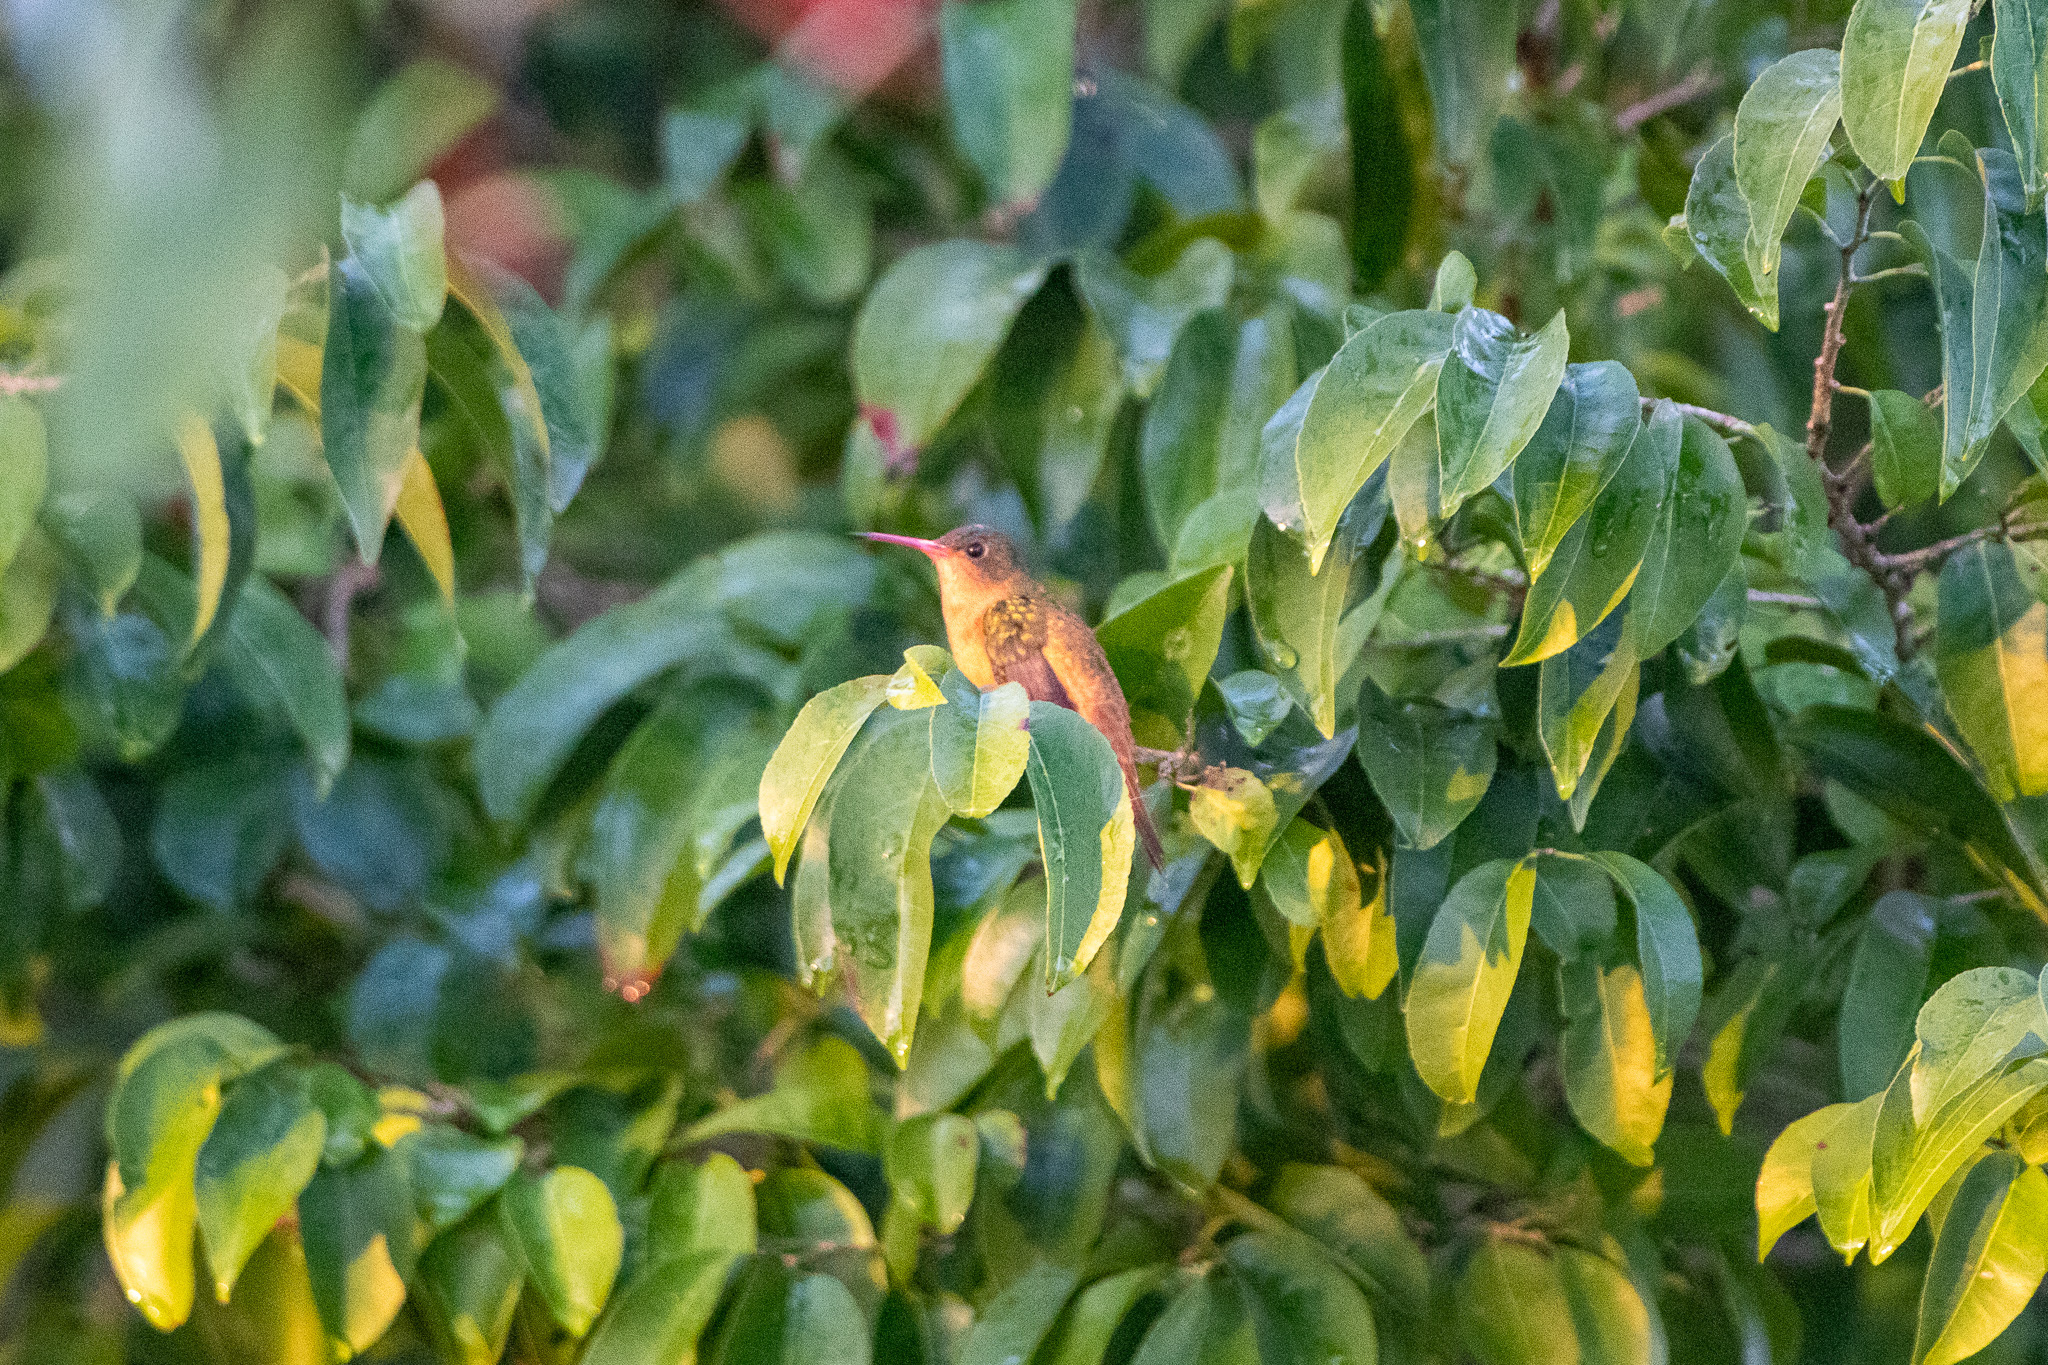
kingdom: Animalia
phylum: Chordata
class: Aves
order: Apodiformes
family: Trochilidae
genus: Amazilia
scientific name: Amazilia rutila
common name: Cinnamon hummingbird
